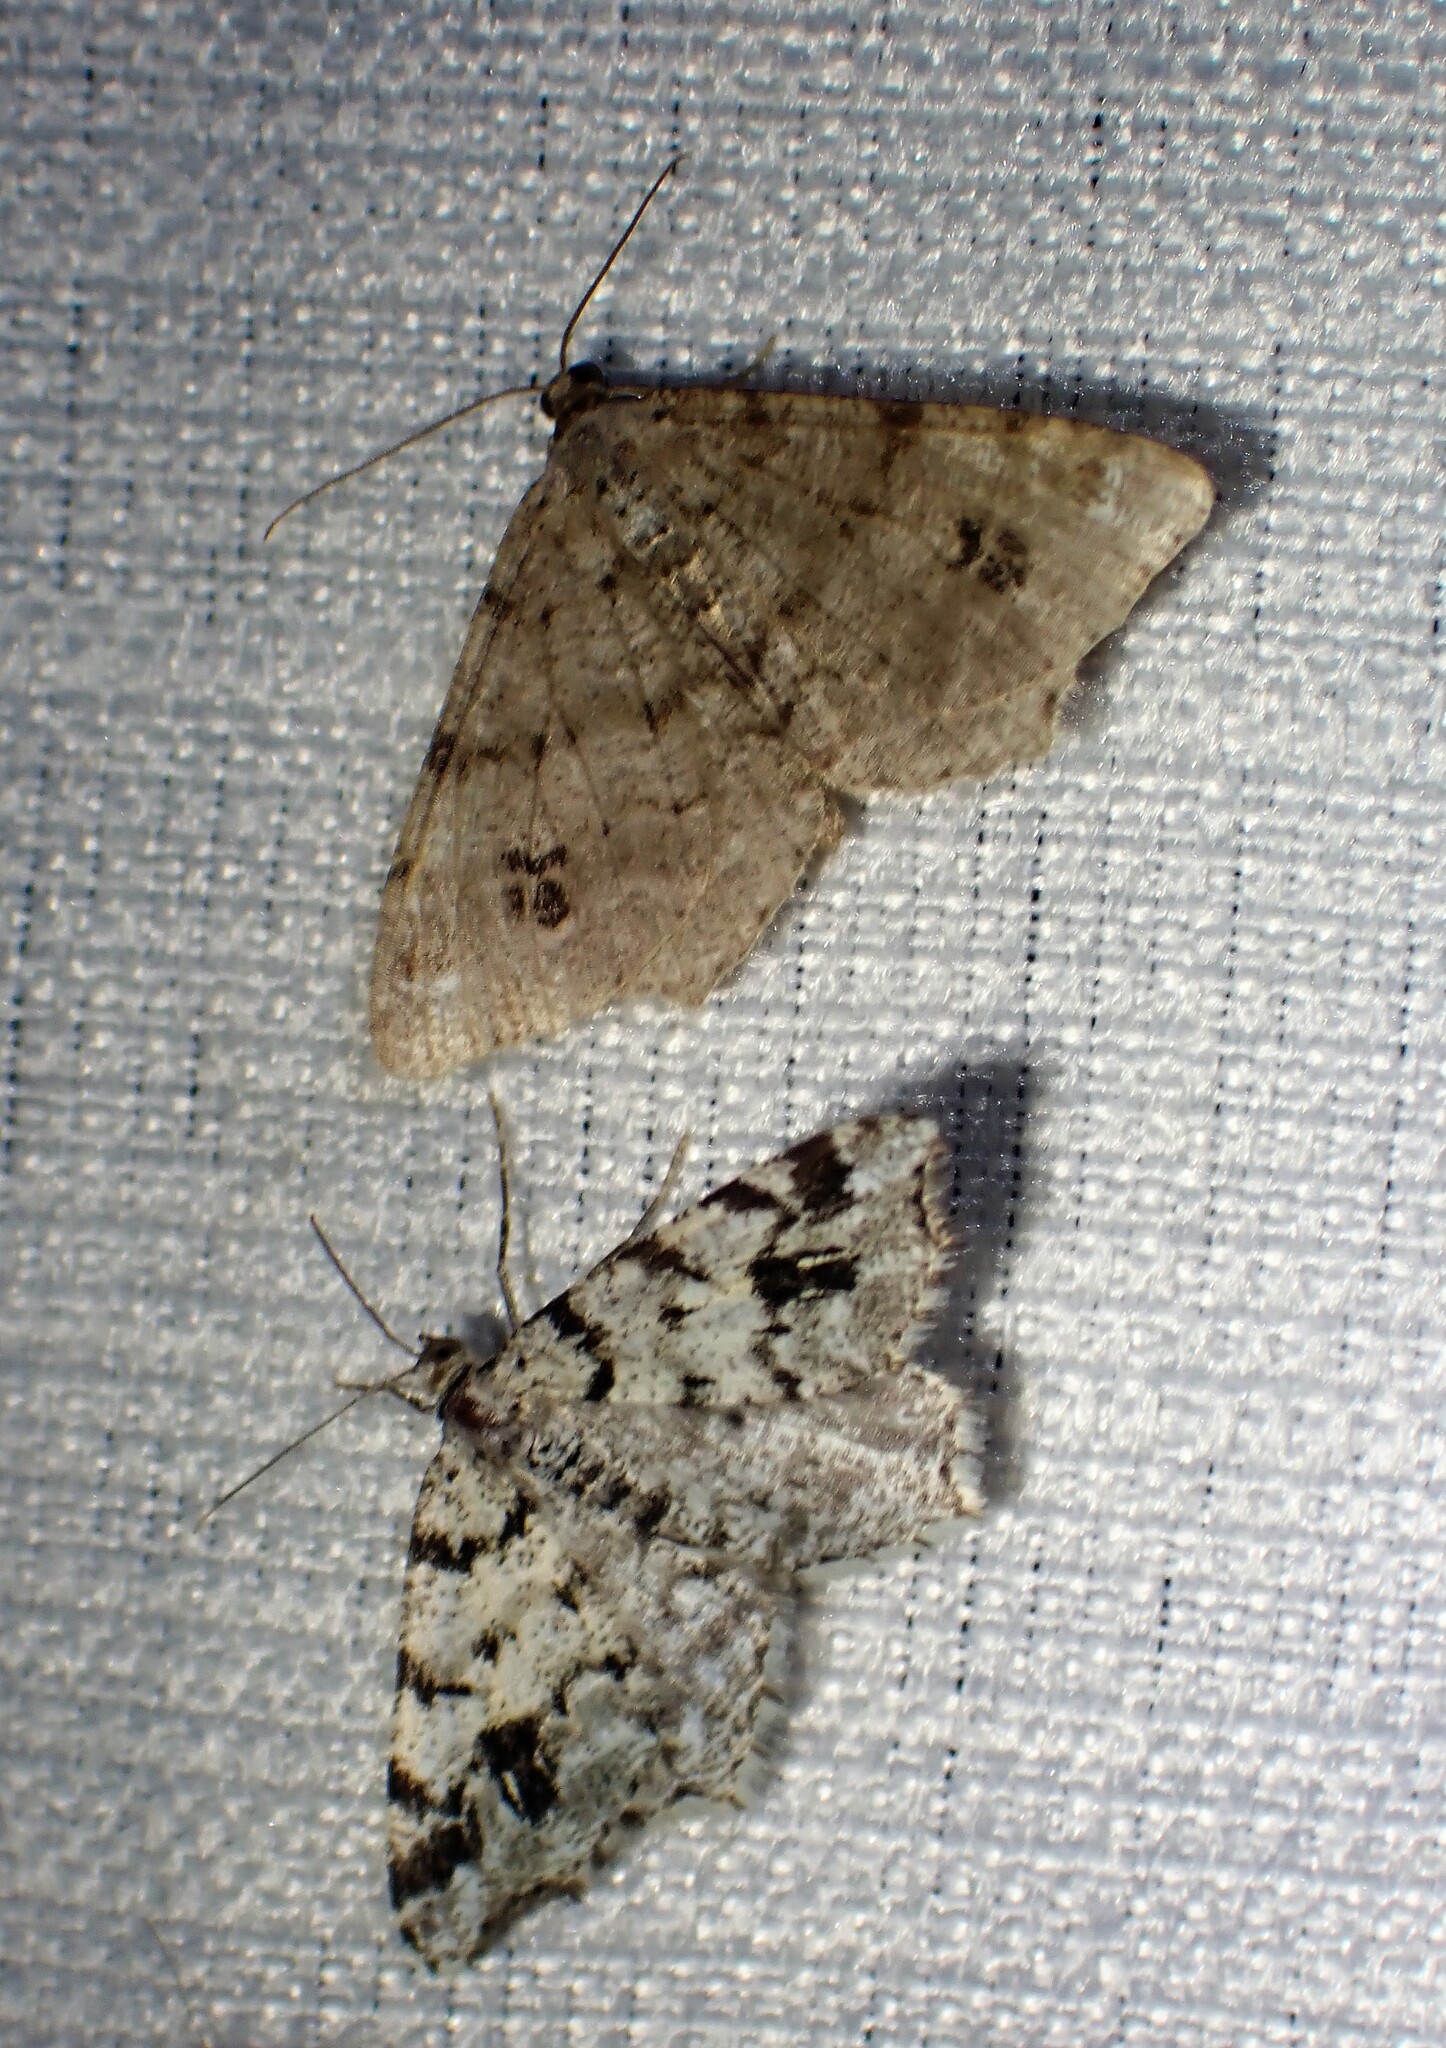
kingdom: Animalia
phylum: Arthropoda
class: Insecta
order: Lepidoptera
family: Geometridae
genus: Macaria
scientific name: Macaria oweni
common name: Owen's angle
